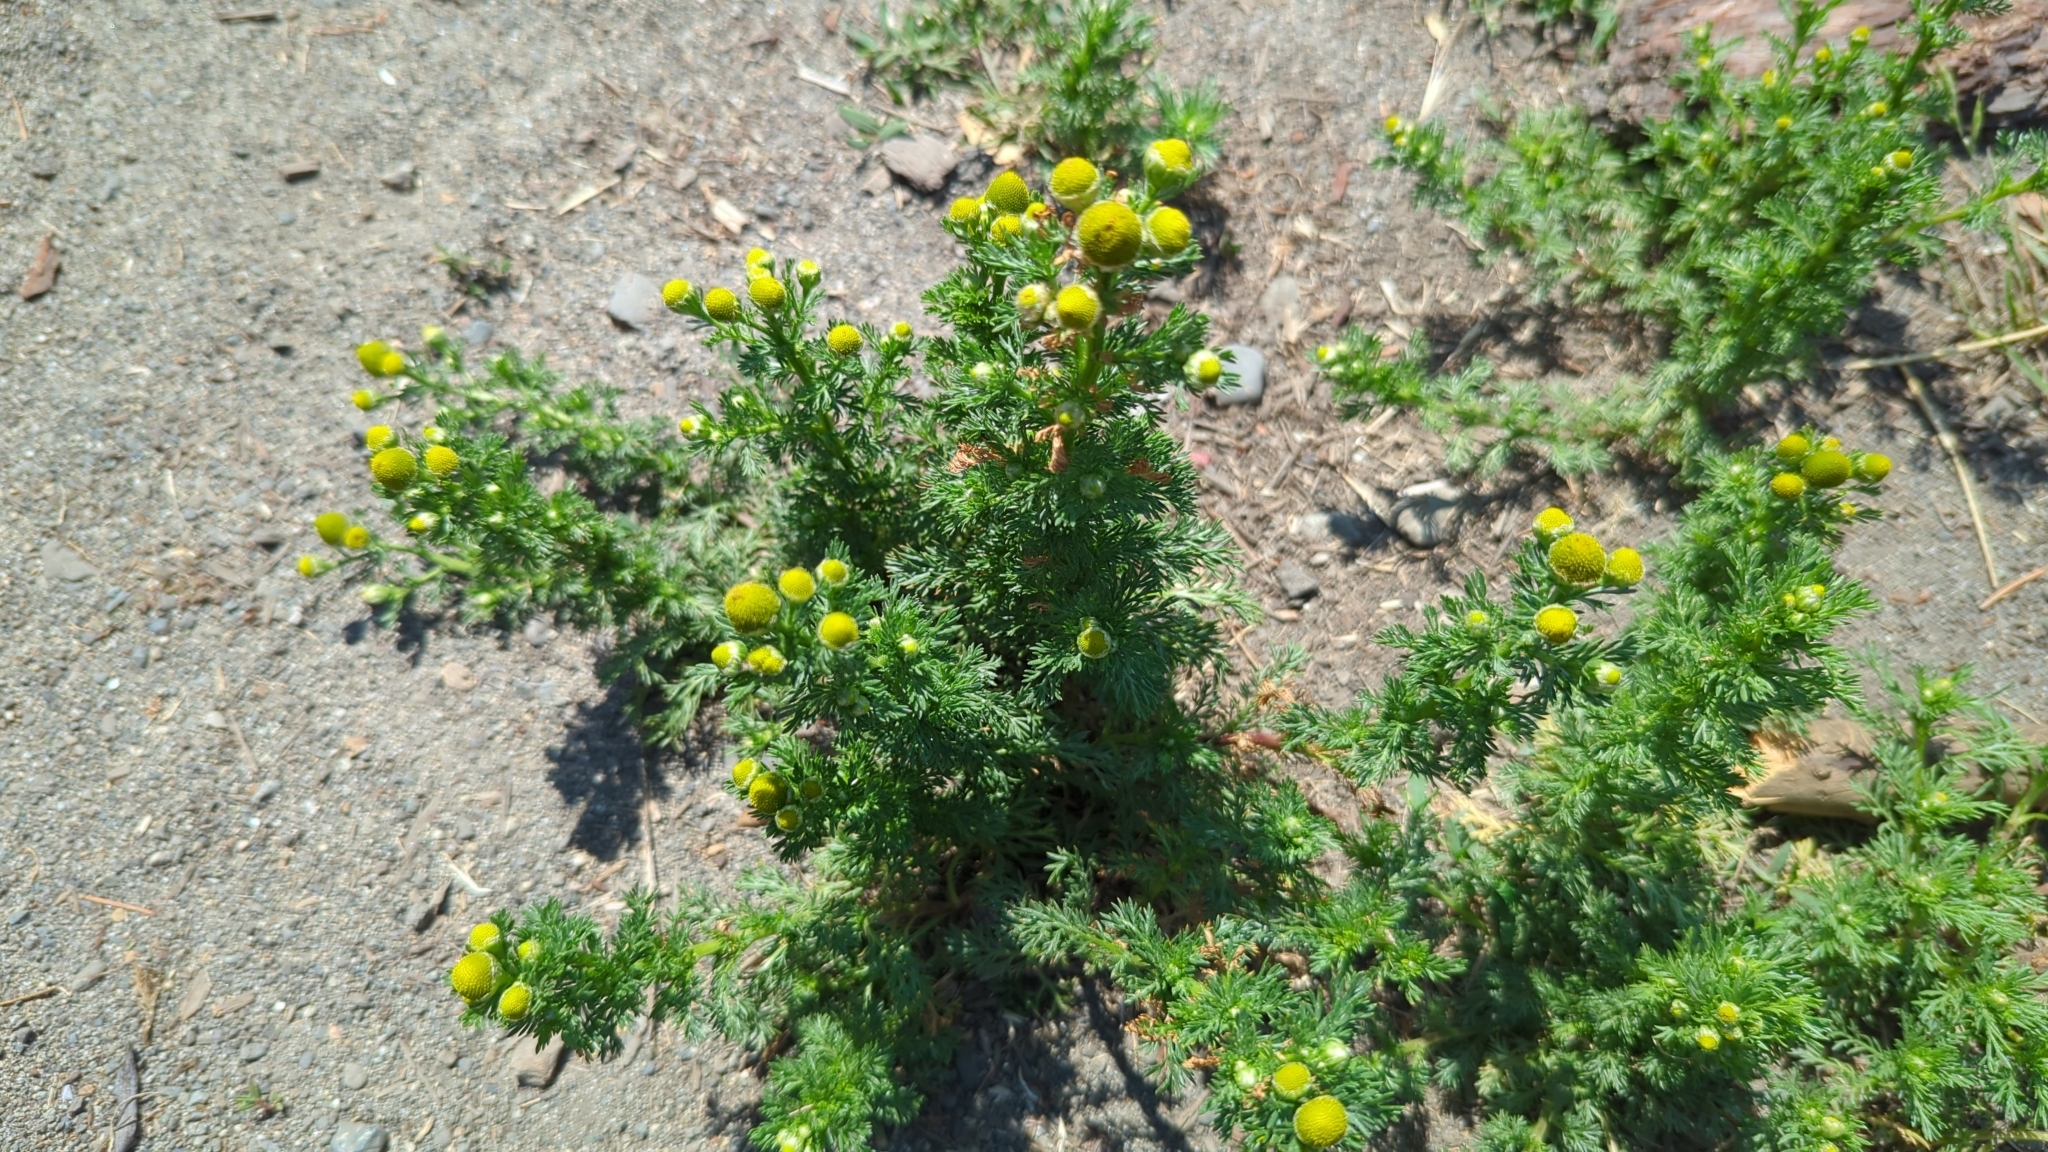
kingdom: Plantae
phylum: Tracheophyta
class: Magnoliopsida
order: Asterales
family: Asteraceae
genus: Matricaria
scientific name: Matricaria discoidea
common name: Disc mayweed
